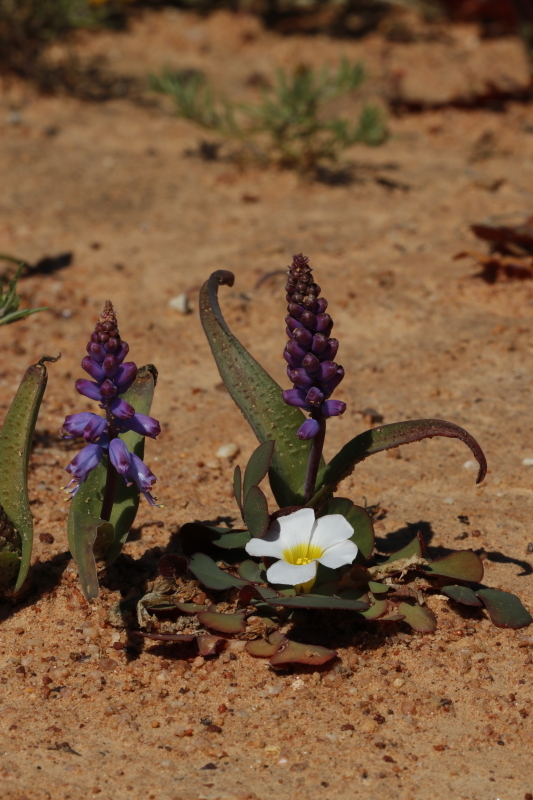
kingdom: Plantae
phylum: Tracheophyta
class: Liliopsida
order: Asparagales
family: Asparagaceae
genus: Lachenalia
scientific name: Lachenalia pallida
